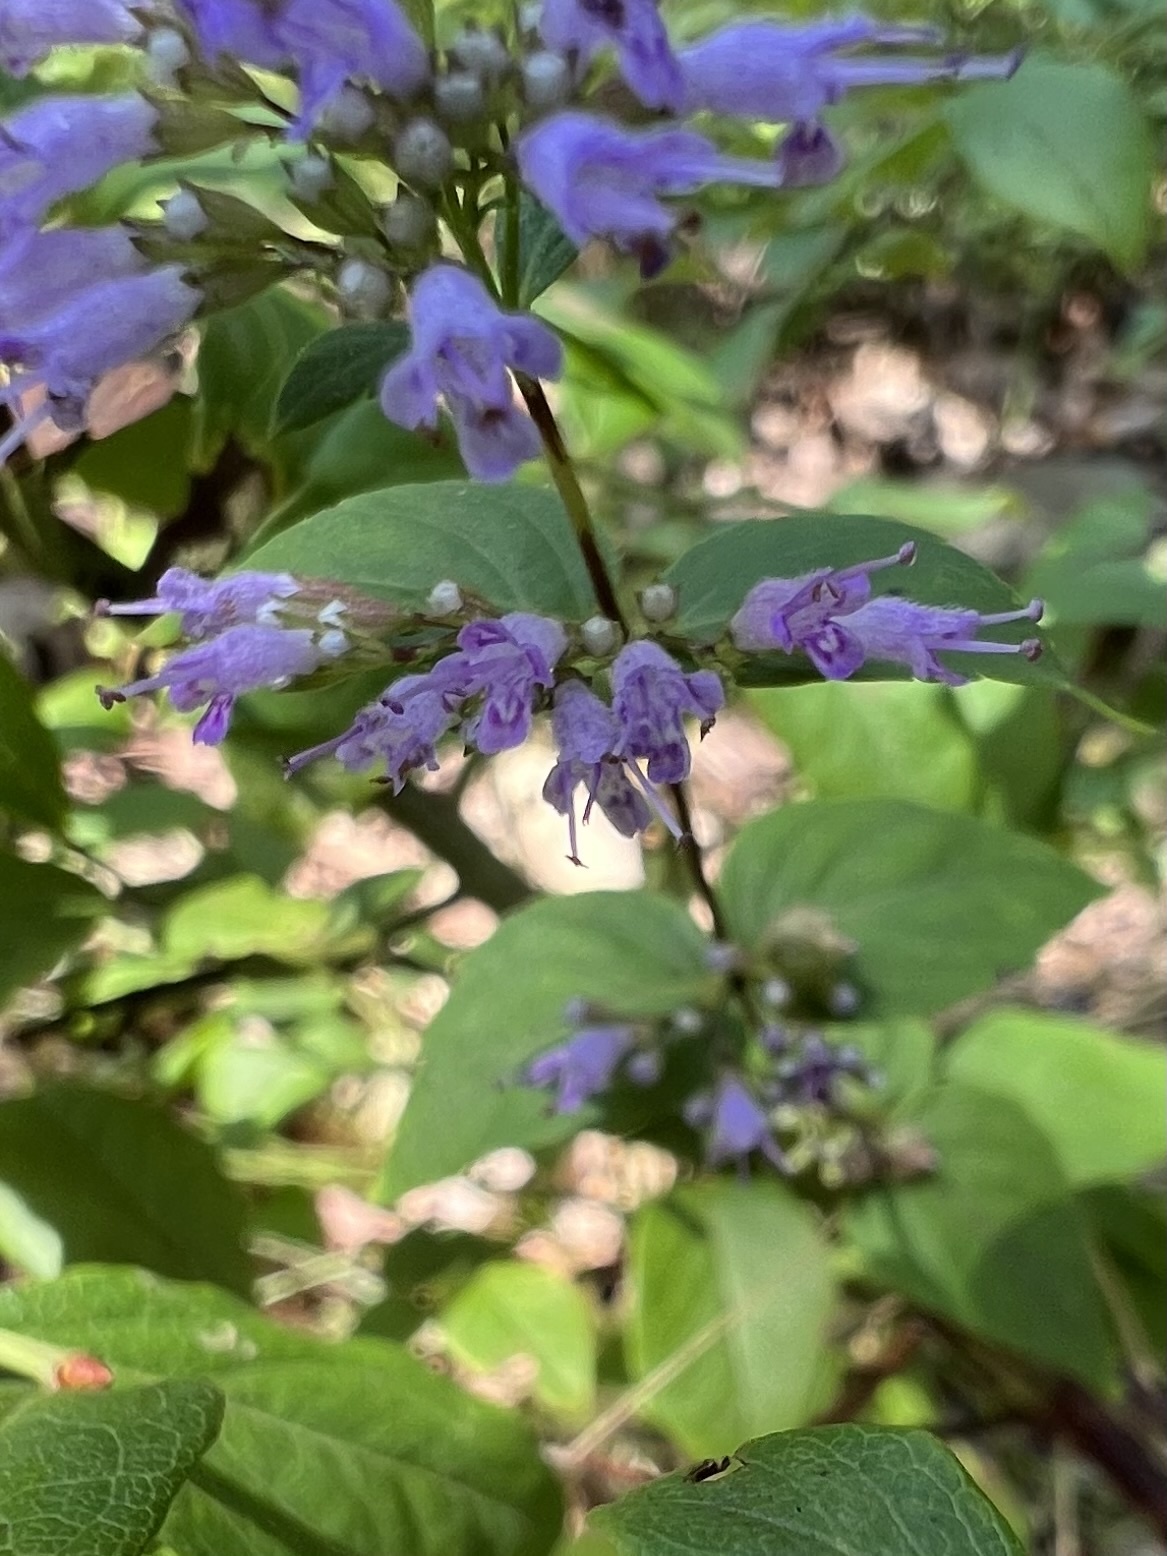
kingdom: Plantae
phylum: Tracheophyta
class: Magnoliopsida
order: Lamiales
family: Lamiaceae
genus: Cunila
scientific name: Cunila origanoides
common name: American dittany
